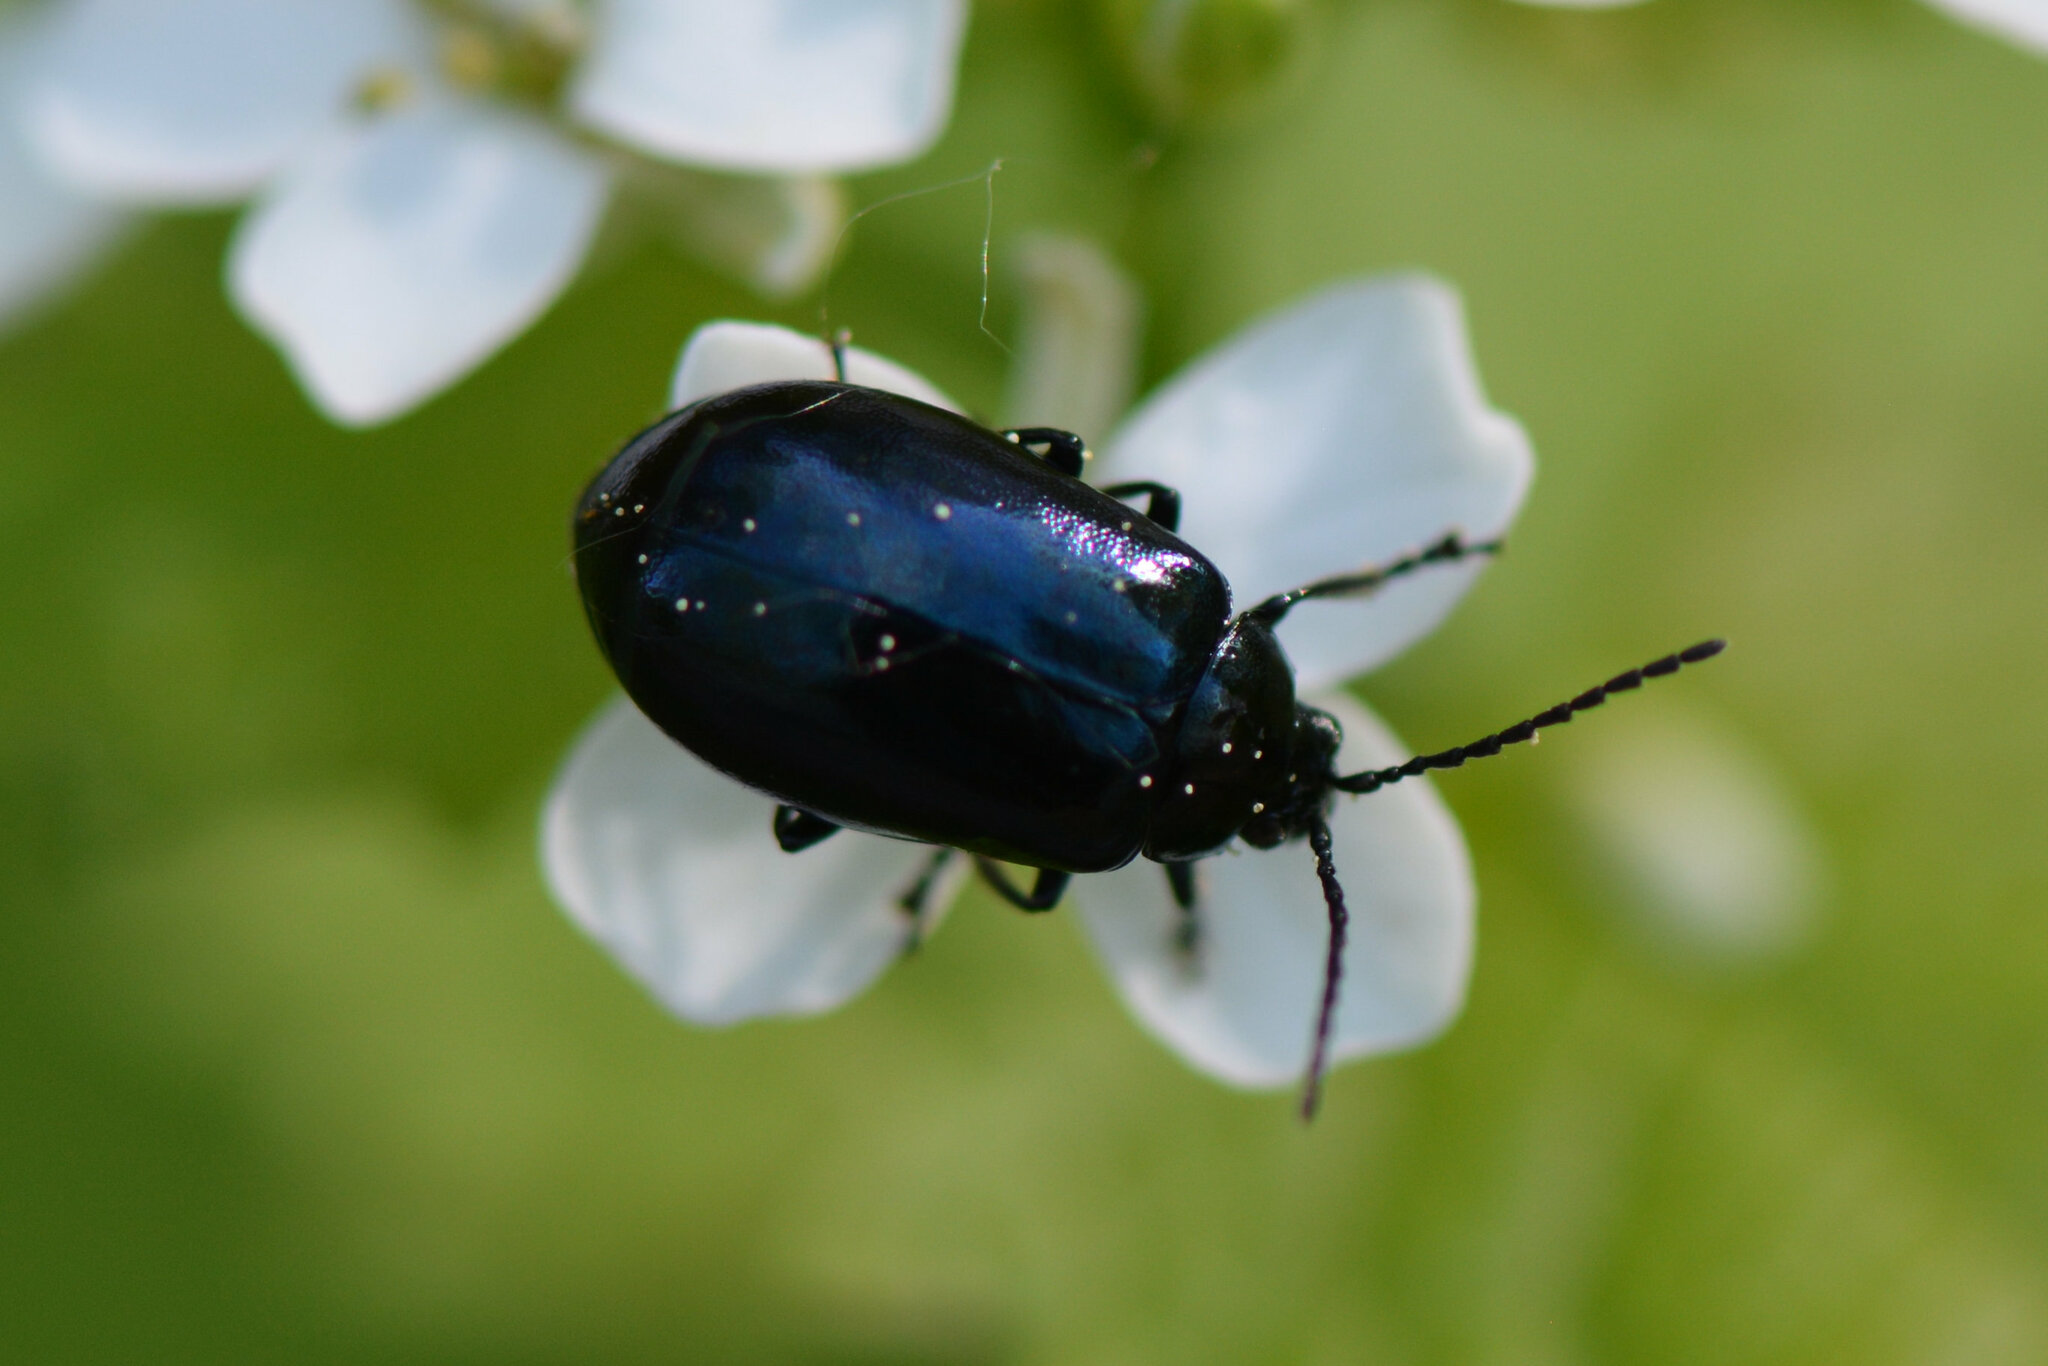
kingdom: Animalia
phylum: Arthropoda
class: Insecta
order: Coleoptera
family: Chrysomelidae
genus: Agelastica
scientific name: Agelastica alni
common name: Alder leaf beetle
